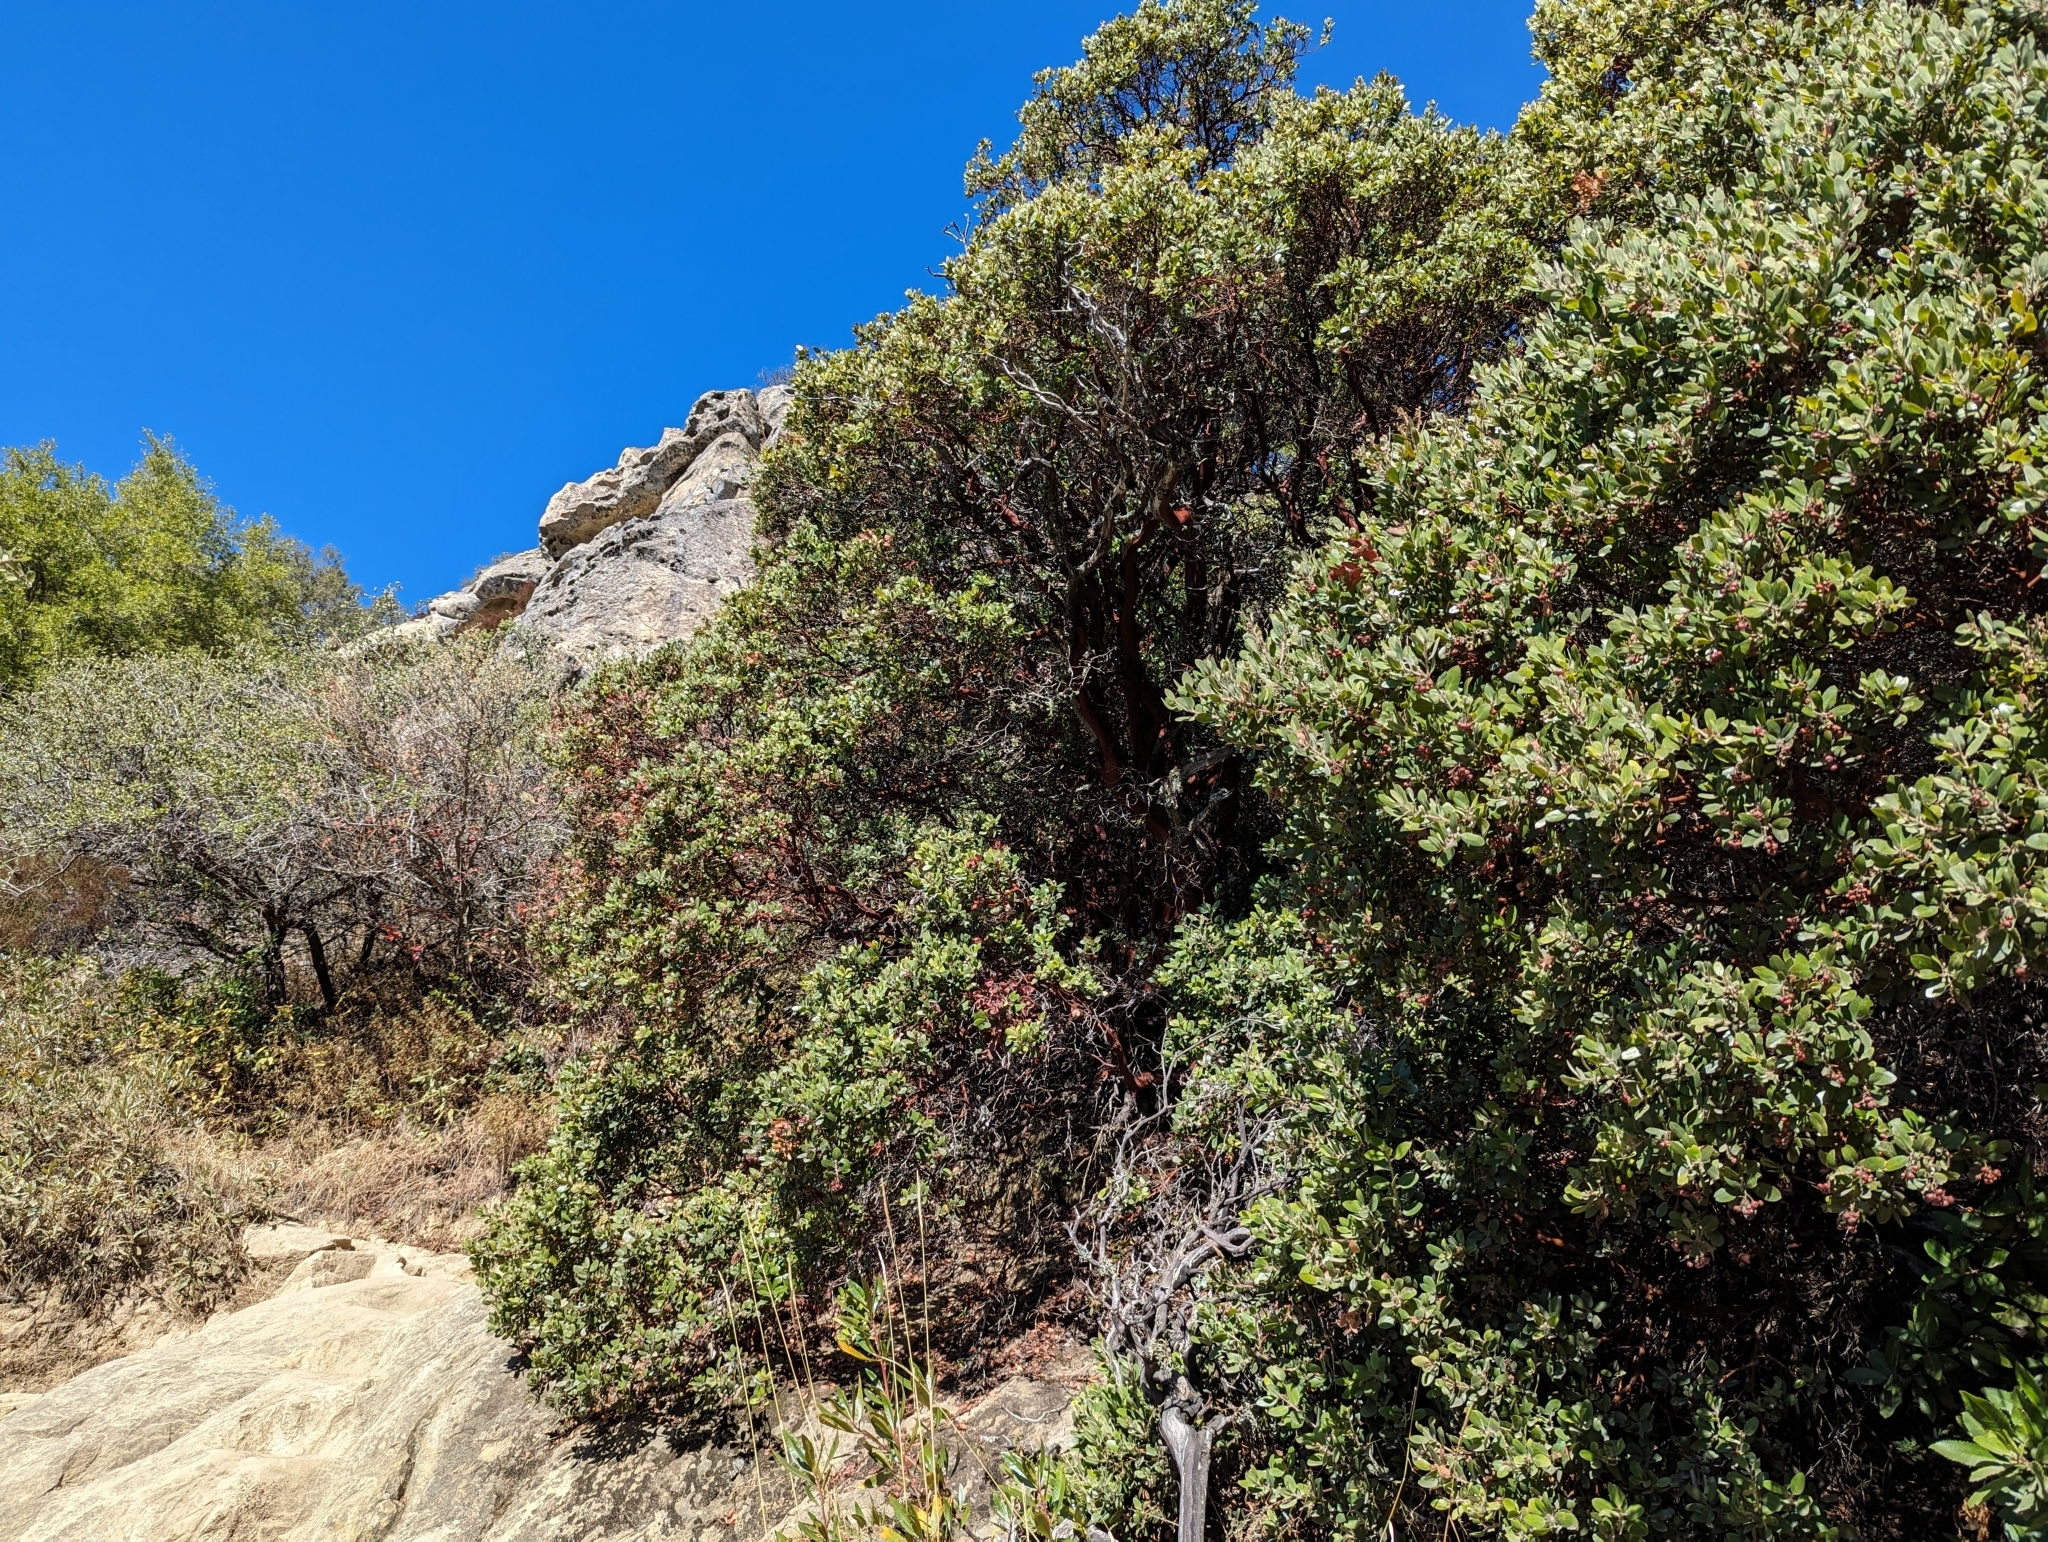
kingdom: Plantae
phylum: Tracheophyta
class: Magnoliopsida
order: Ericales
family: Ericaceae
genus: Arctostaphylos
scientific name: Arctostaphylos crustacea
